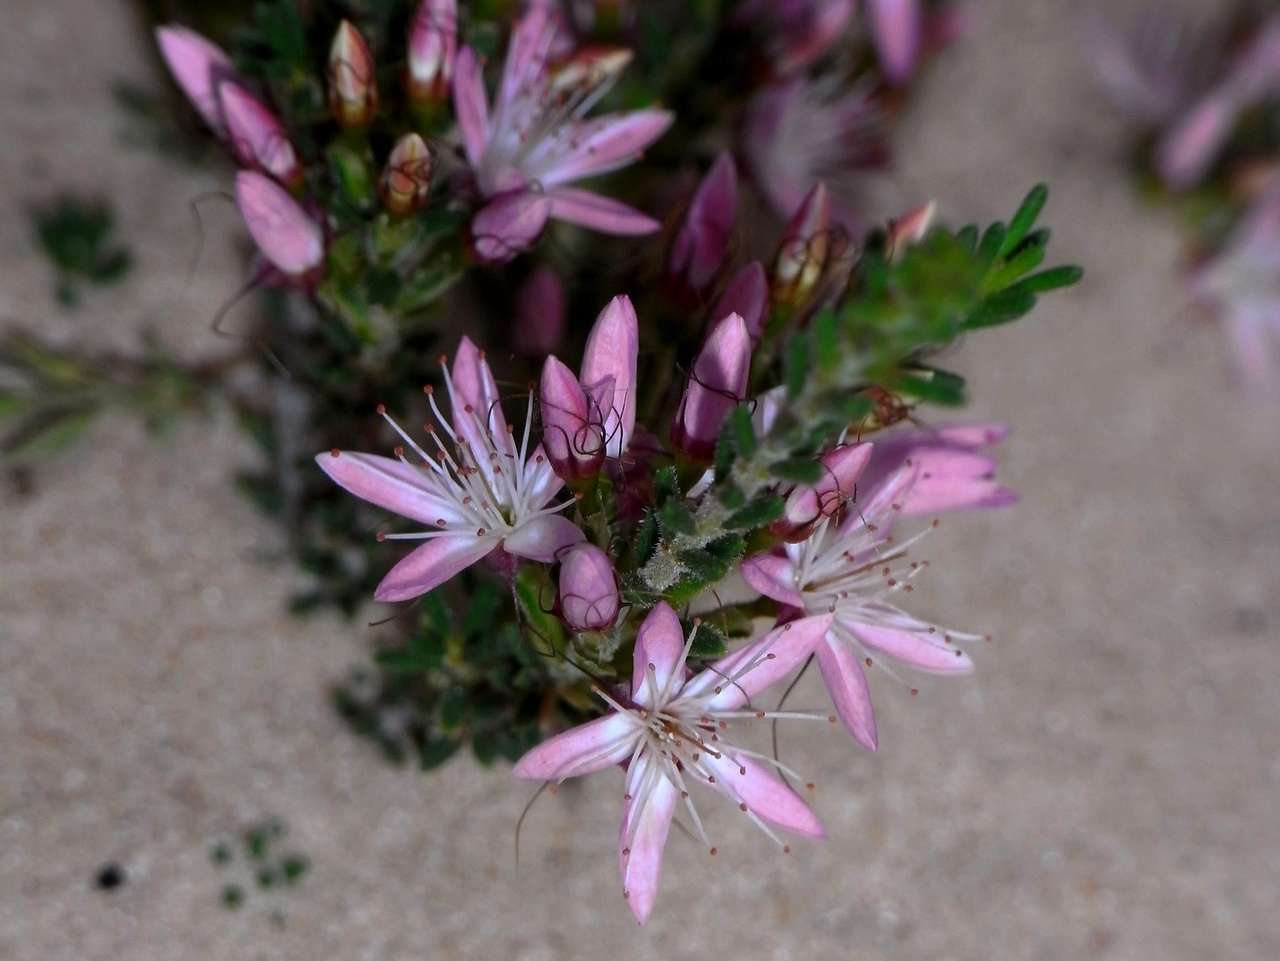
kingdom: Plantae
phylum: Tracheophyta
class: Magnoliopsida
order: Myrtales
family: Myrtaceae
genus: Calytrix
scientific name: Calytrix tetragona
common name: Common fringe myrtle
